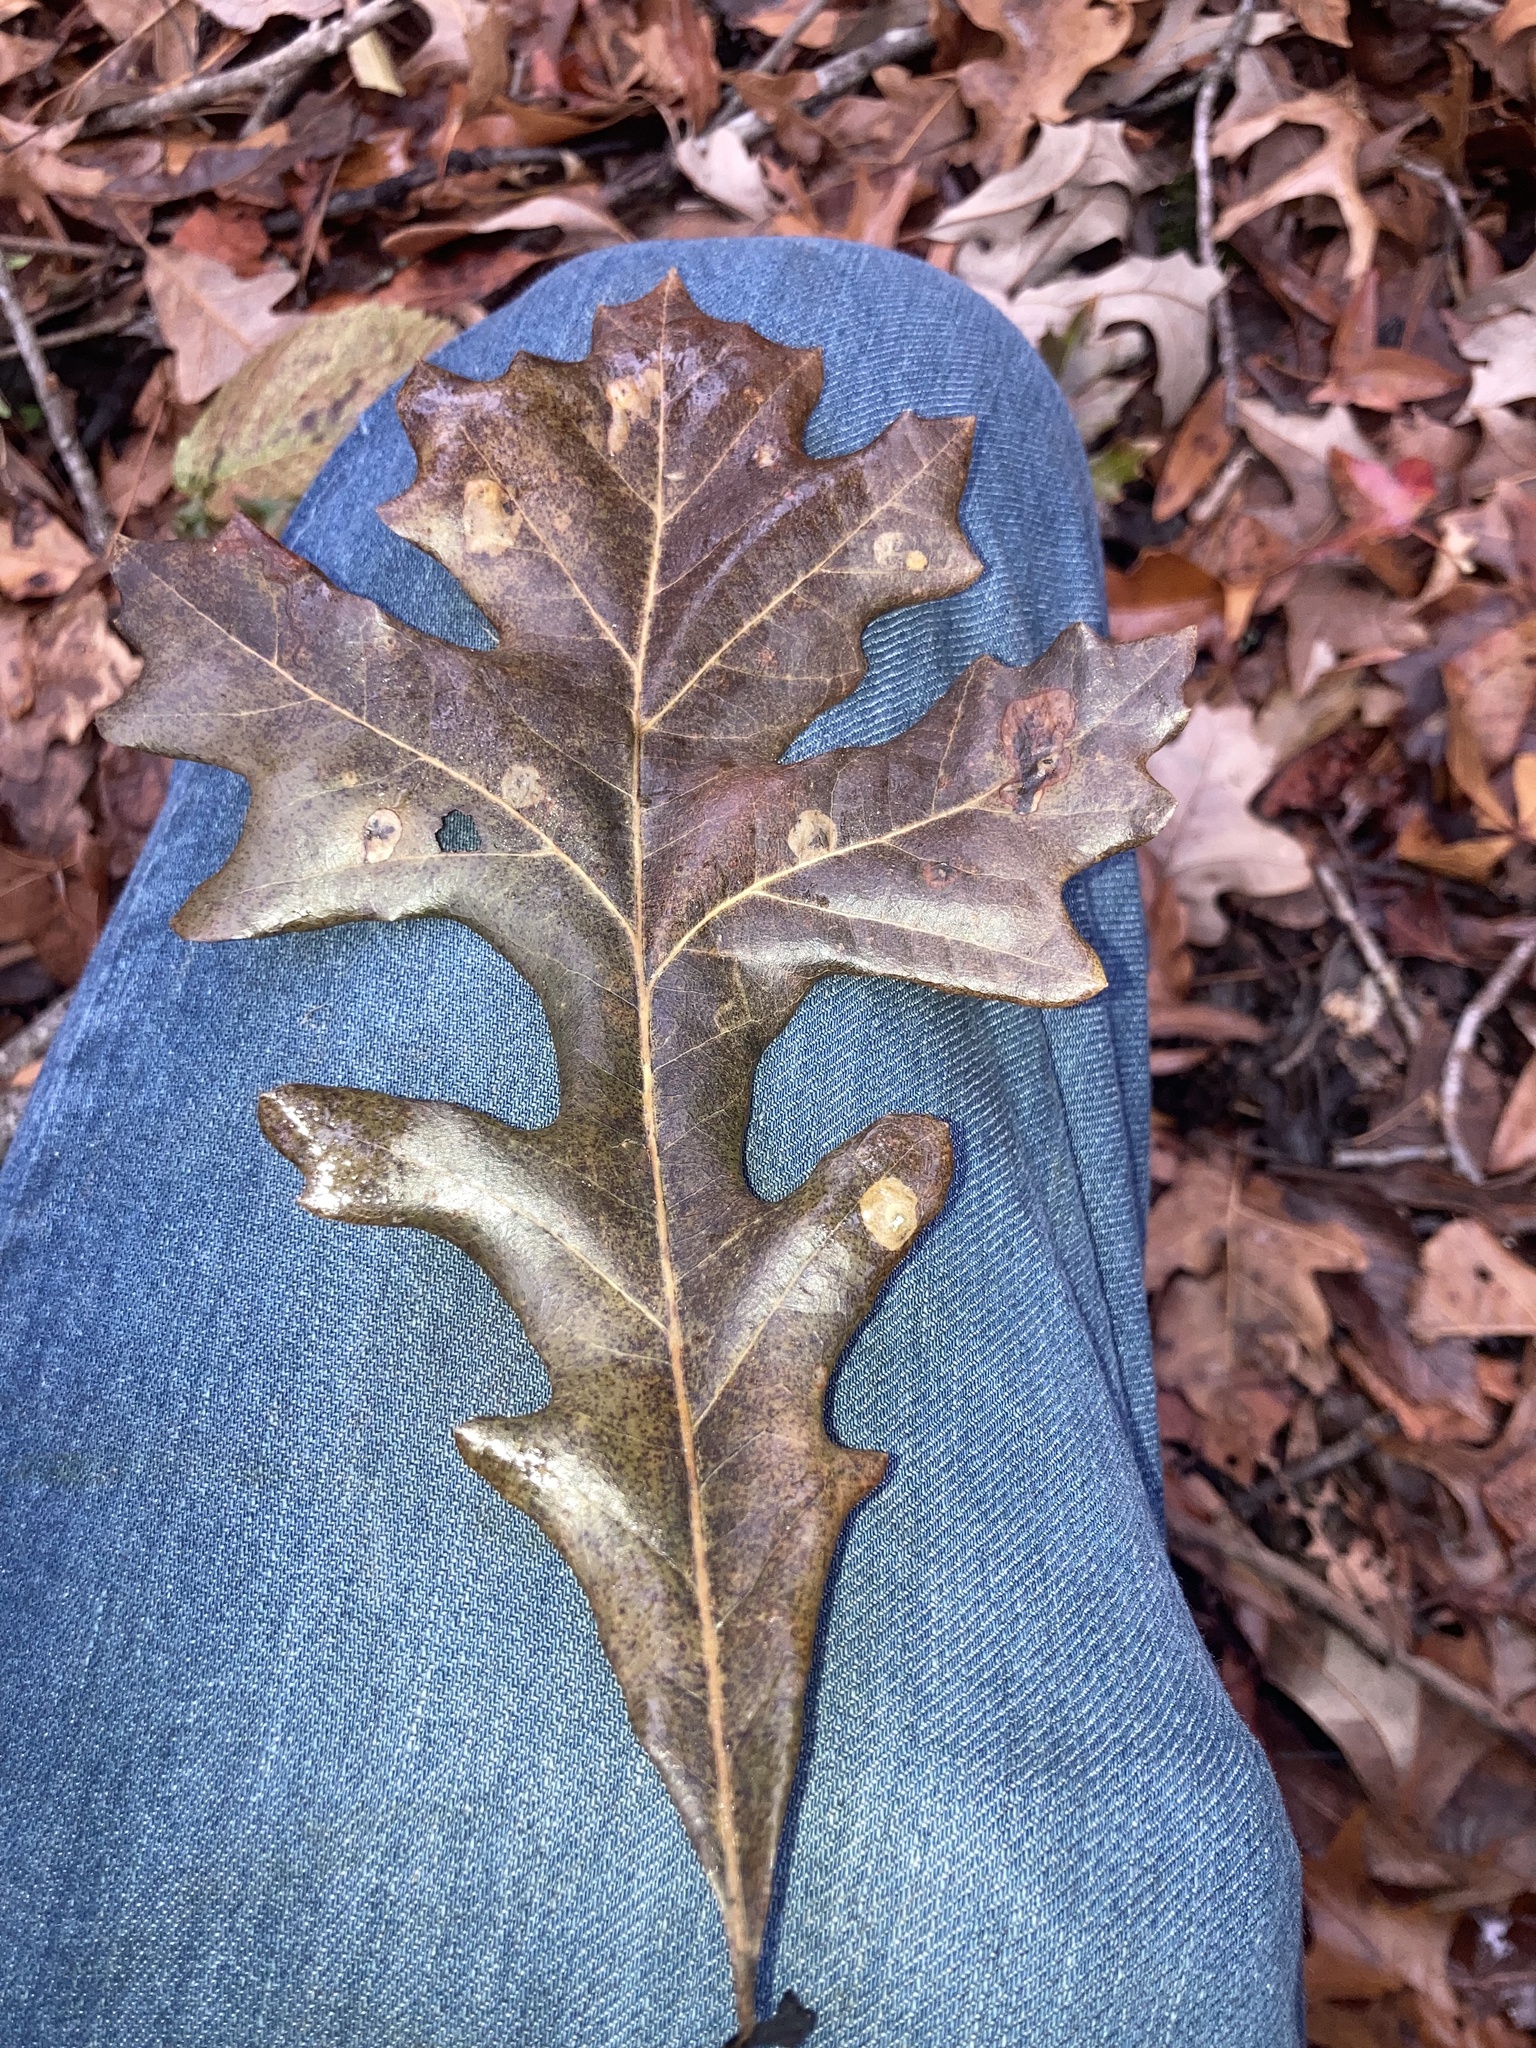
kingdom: Plantae
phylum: Tracheophyta
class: Magnoliopsida
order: Fagales
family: Fagaceae
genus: Quercus
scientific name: Quercus lyrata
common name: Overcup oak
